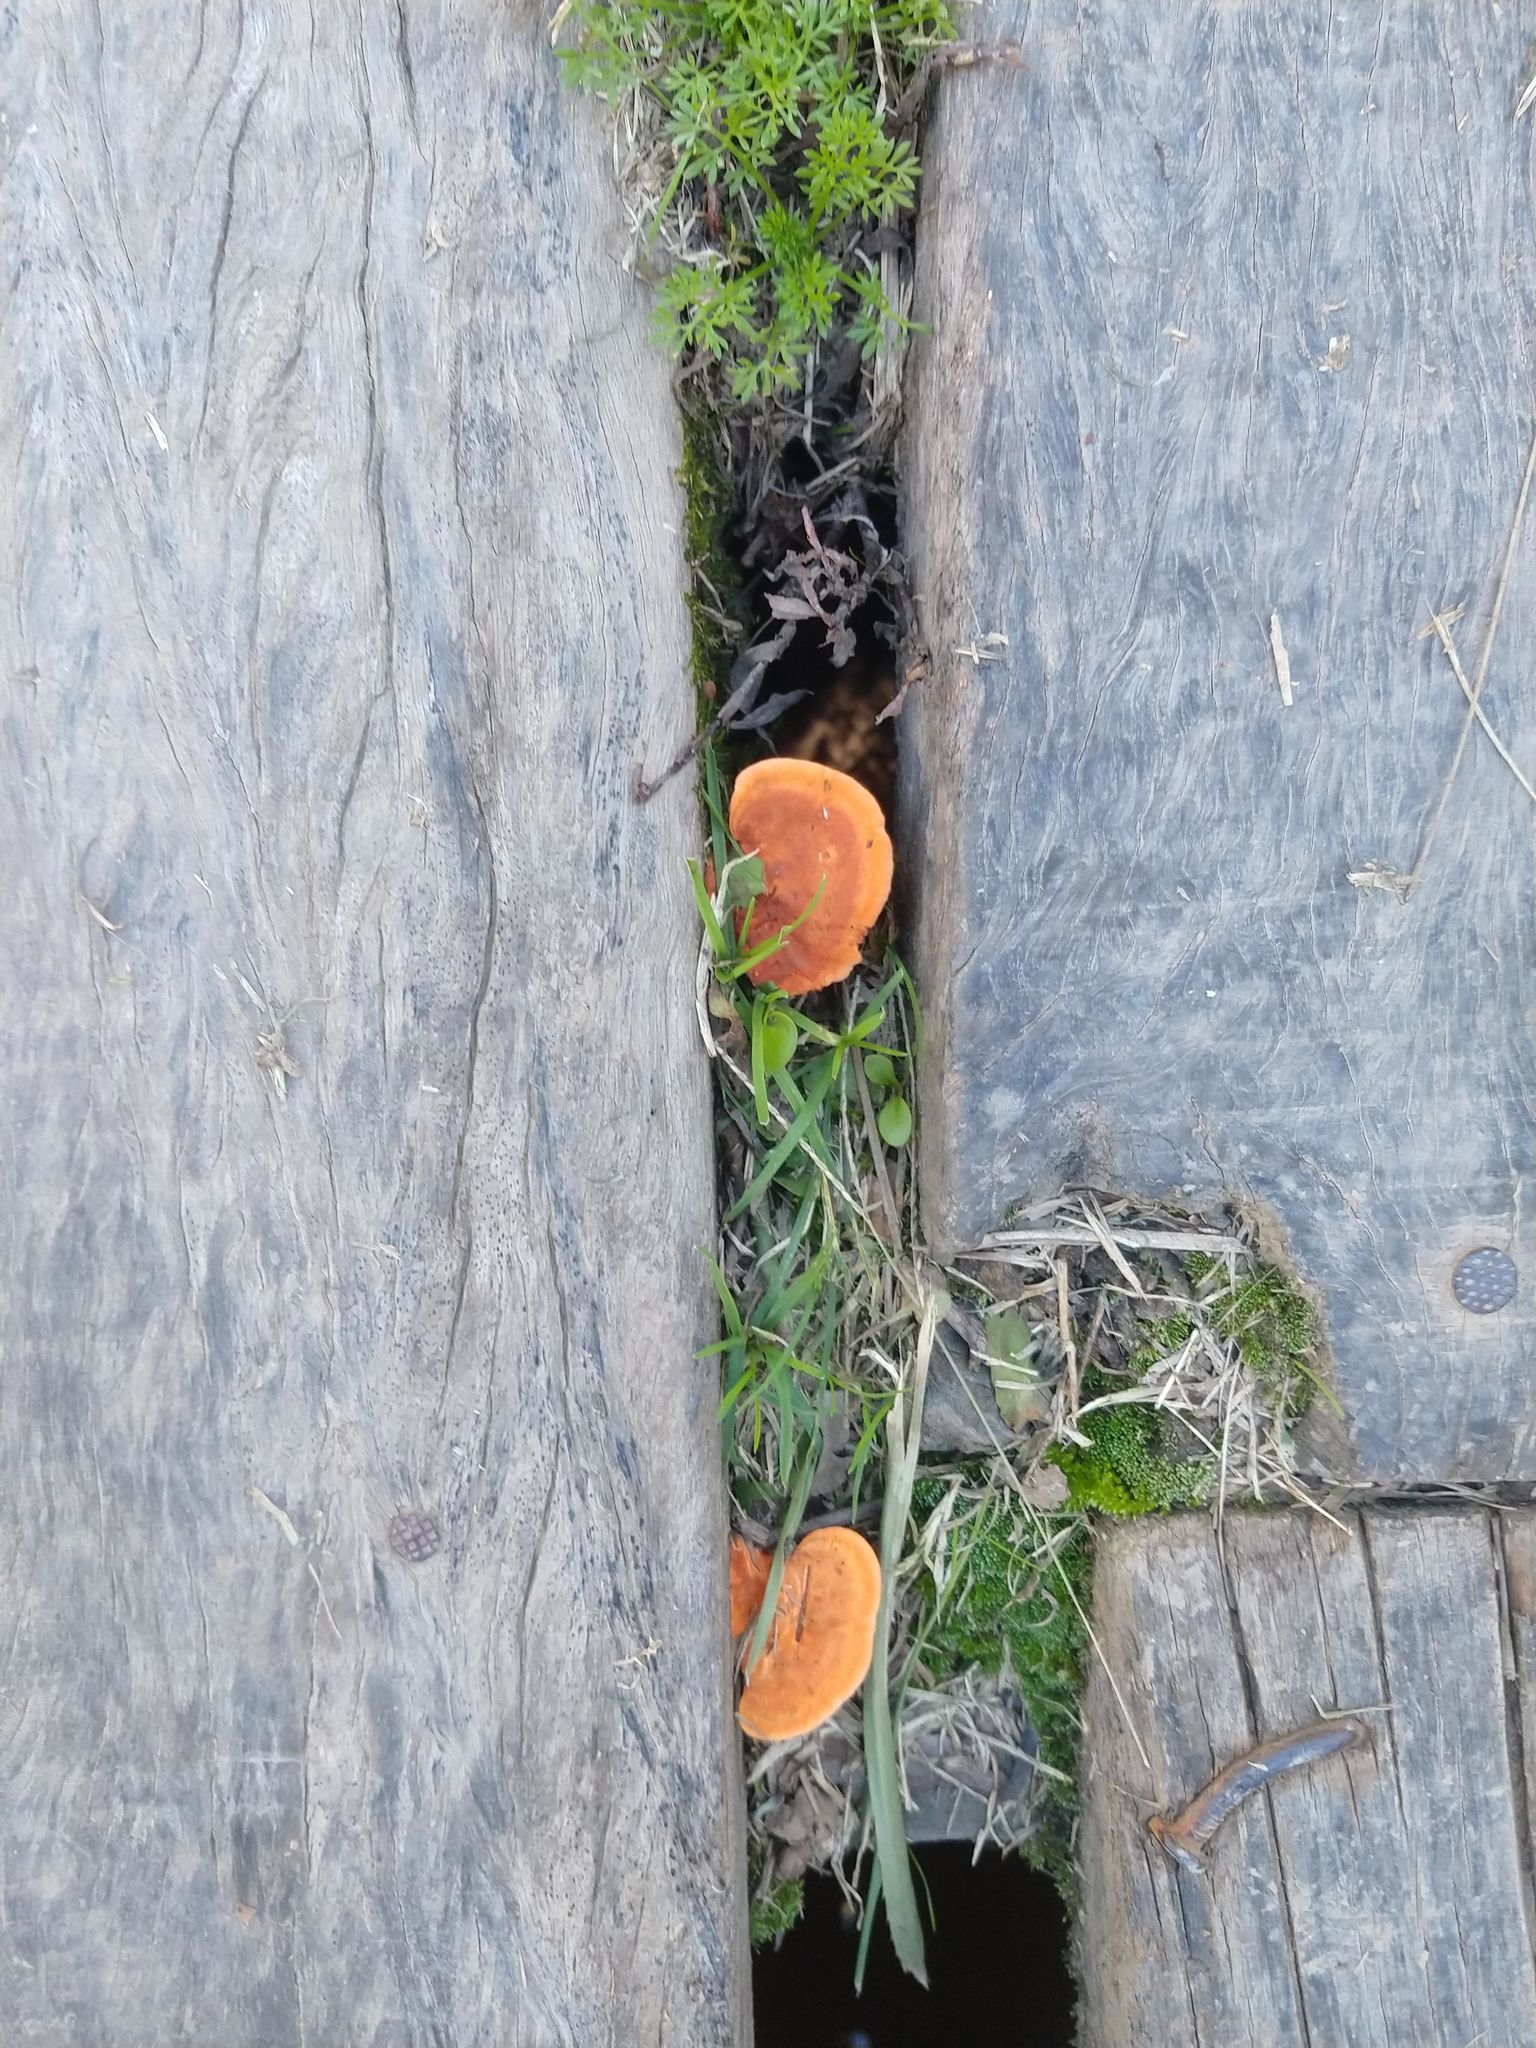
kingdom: Fungi
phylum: Basidiomycota
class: Agaricomycetes
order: Polyporales
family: Polyporaceae
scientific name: Polyporaceae
